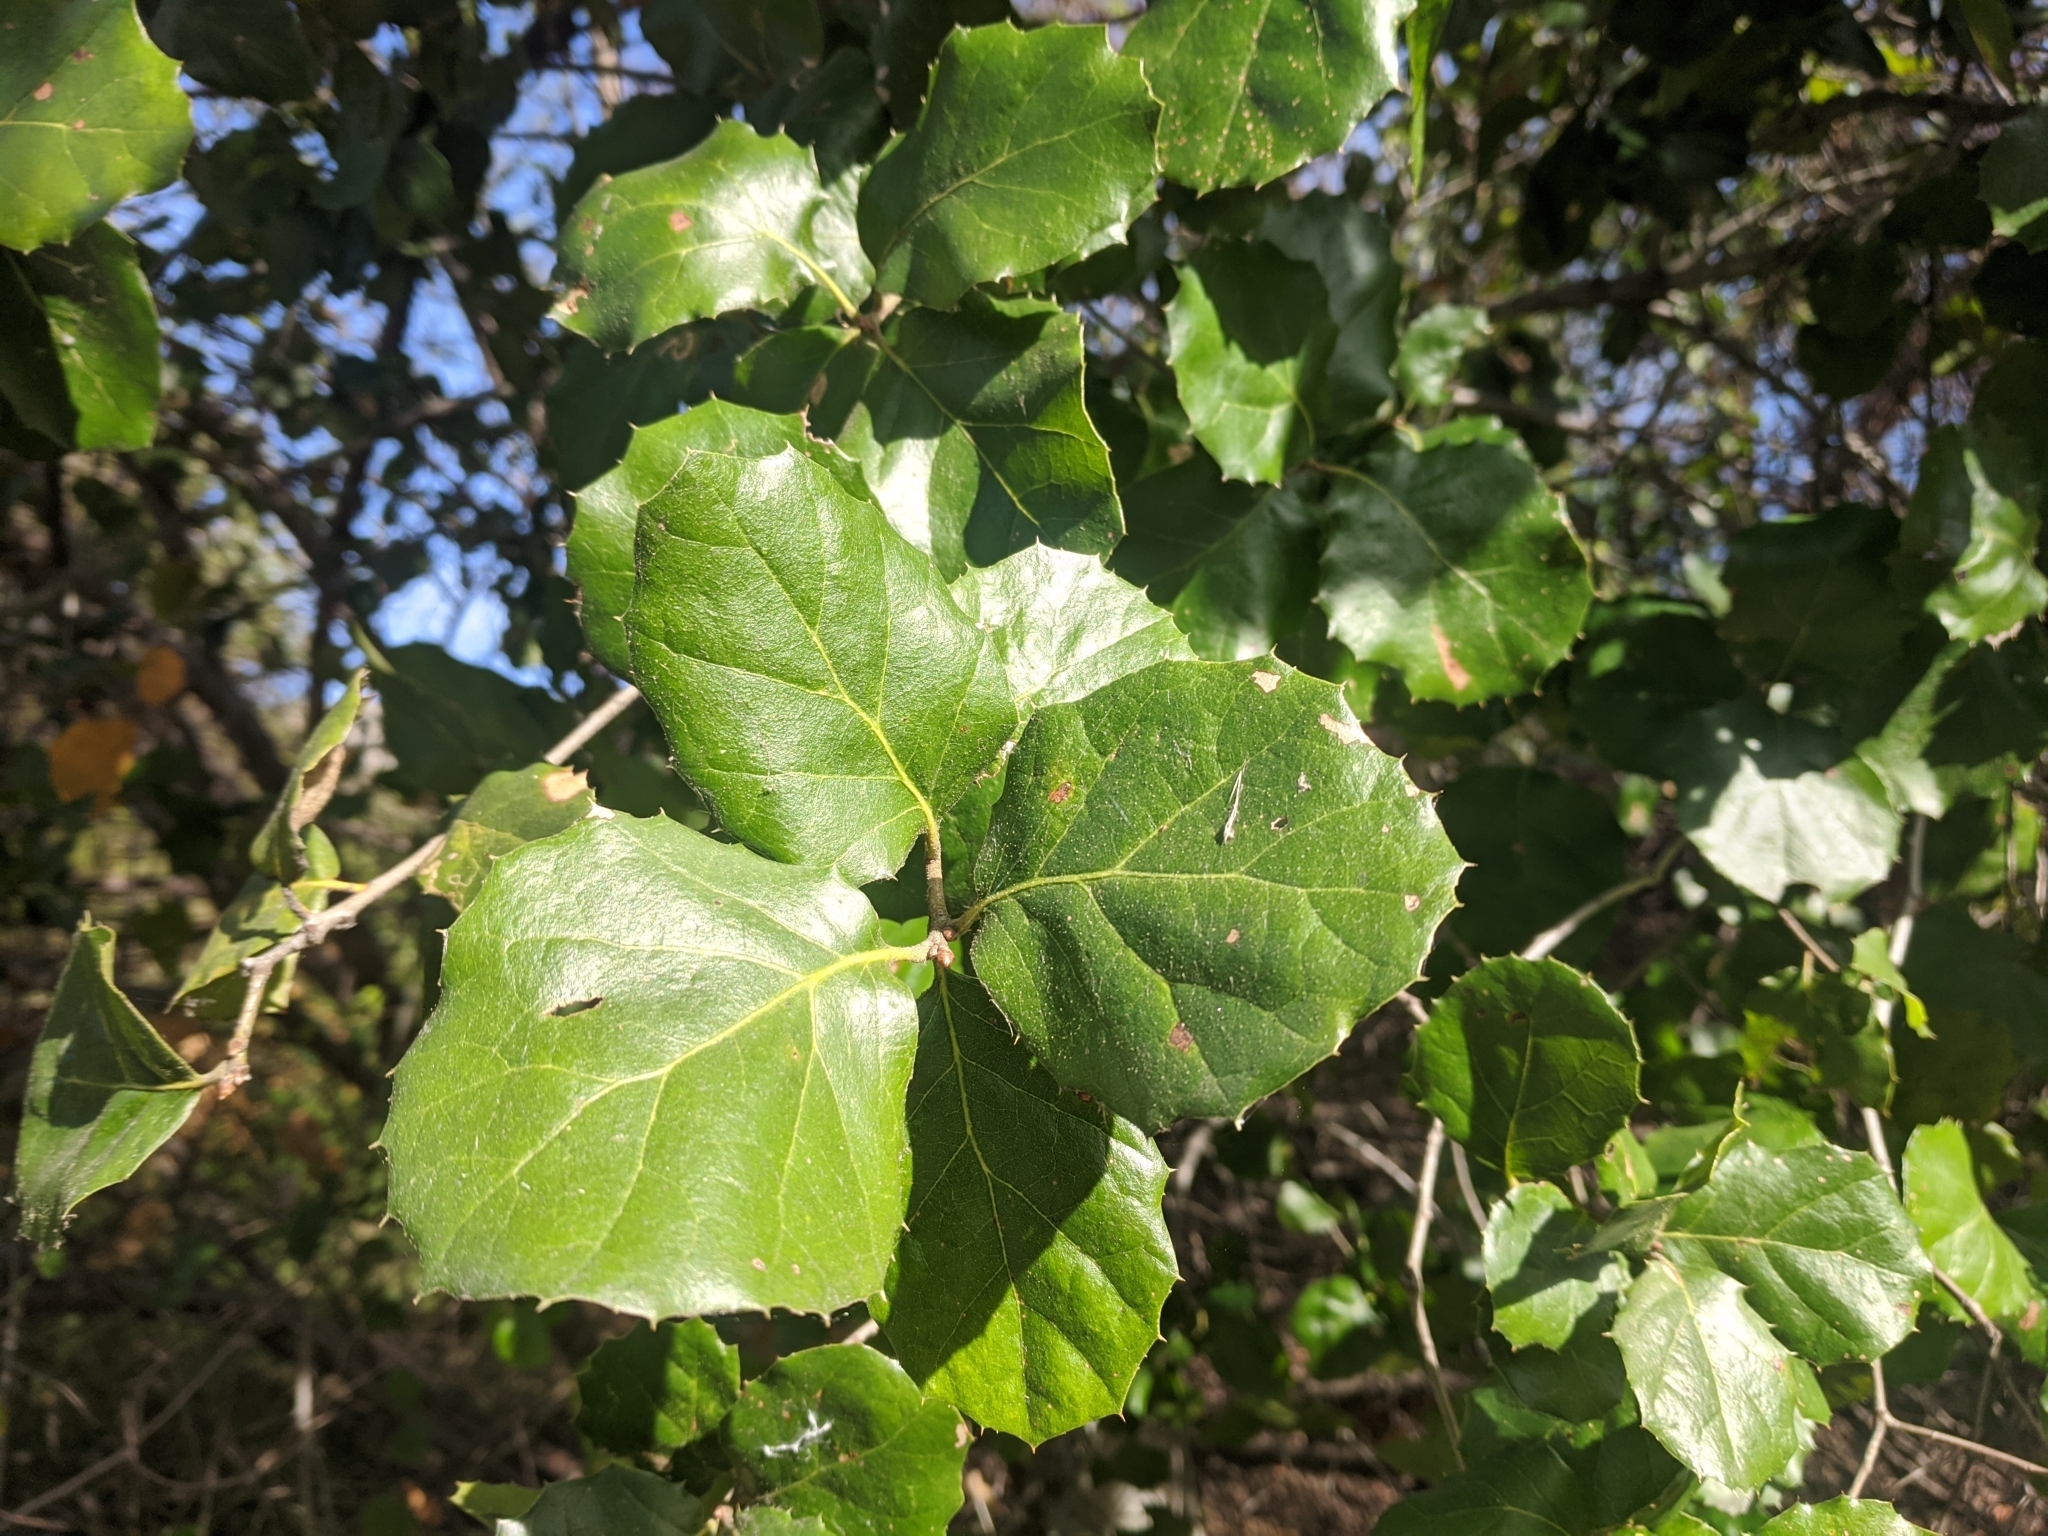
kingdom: Plantae
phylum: Tracheophyta
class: Magnoliopsida
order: Fagales
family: Fagaceae
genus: Quercus
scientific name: Quercus agrifolia
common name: California live oak
